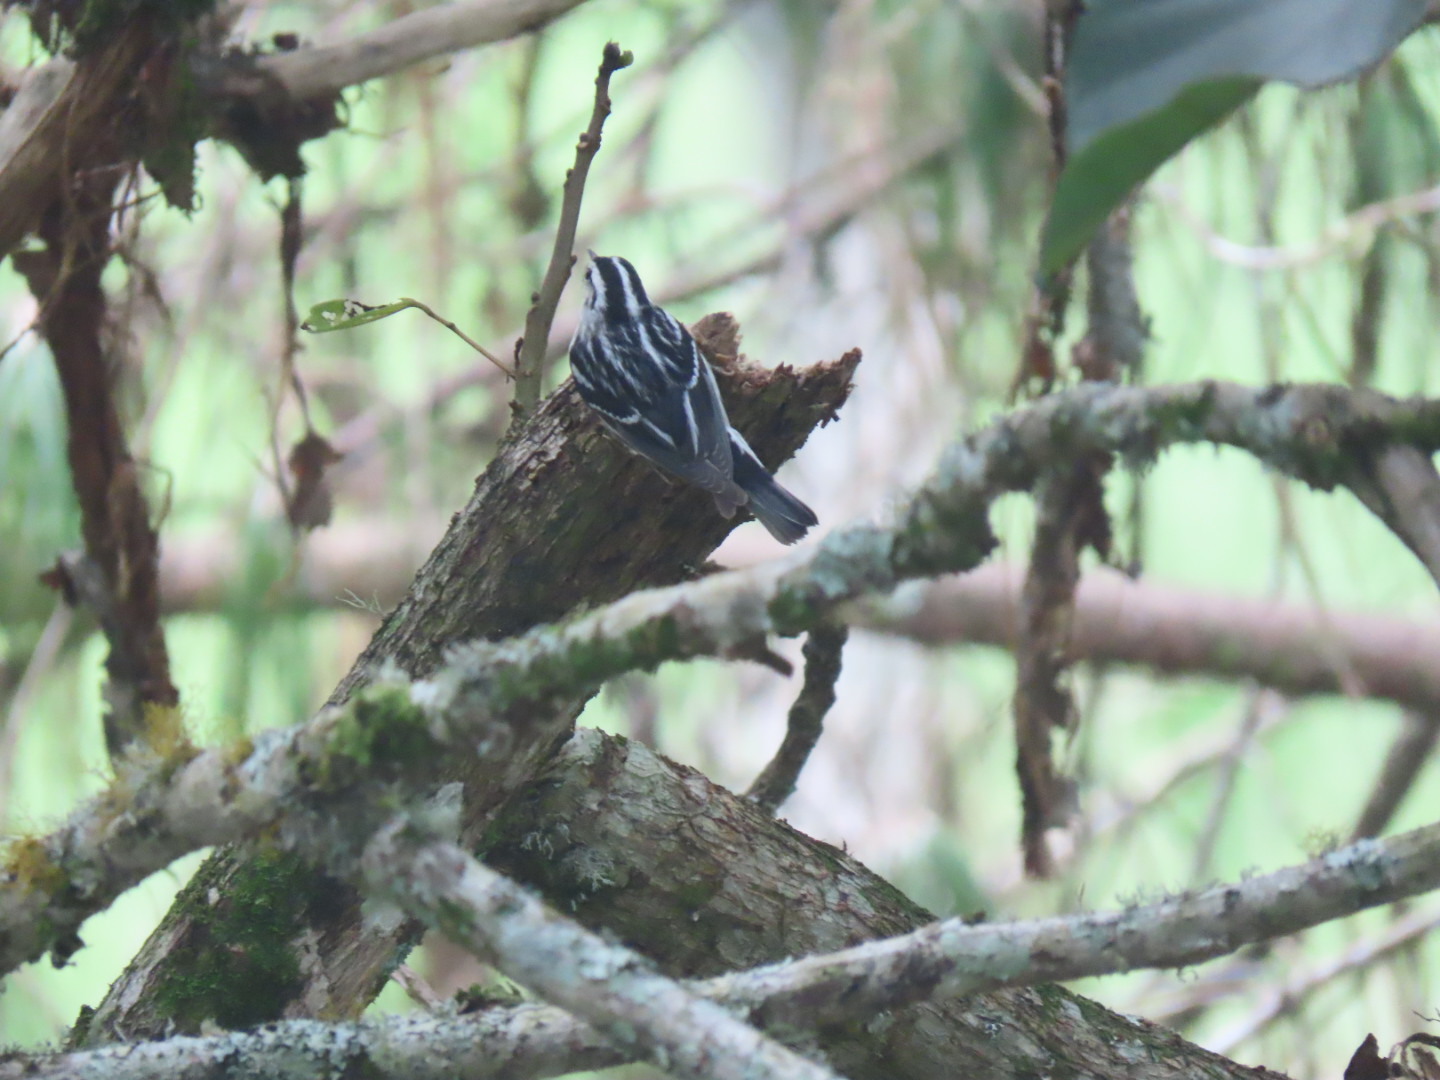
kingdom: Animalia
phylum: Chordata
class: Aves
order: Passeriformes
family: Parulidae
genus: Mniotilta
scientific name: Mniotilta varia
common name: Black-and-white warbler
